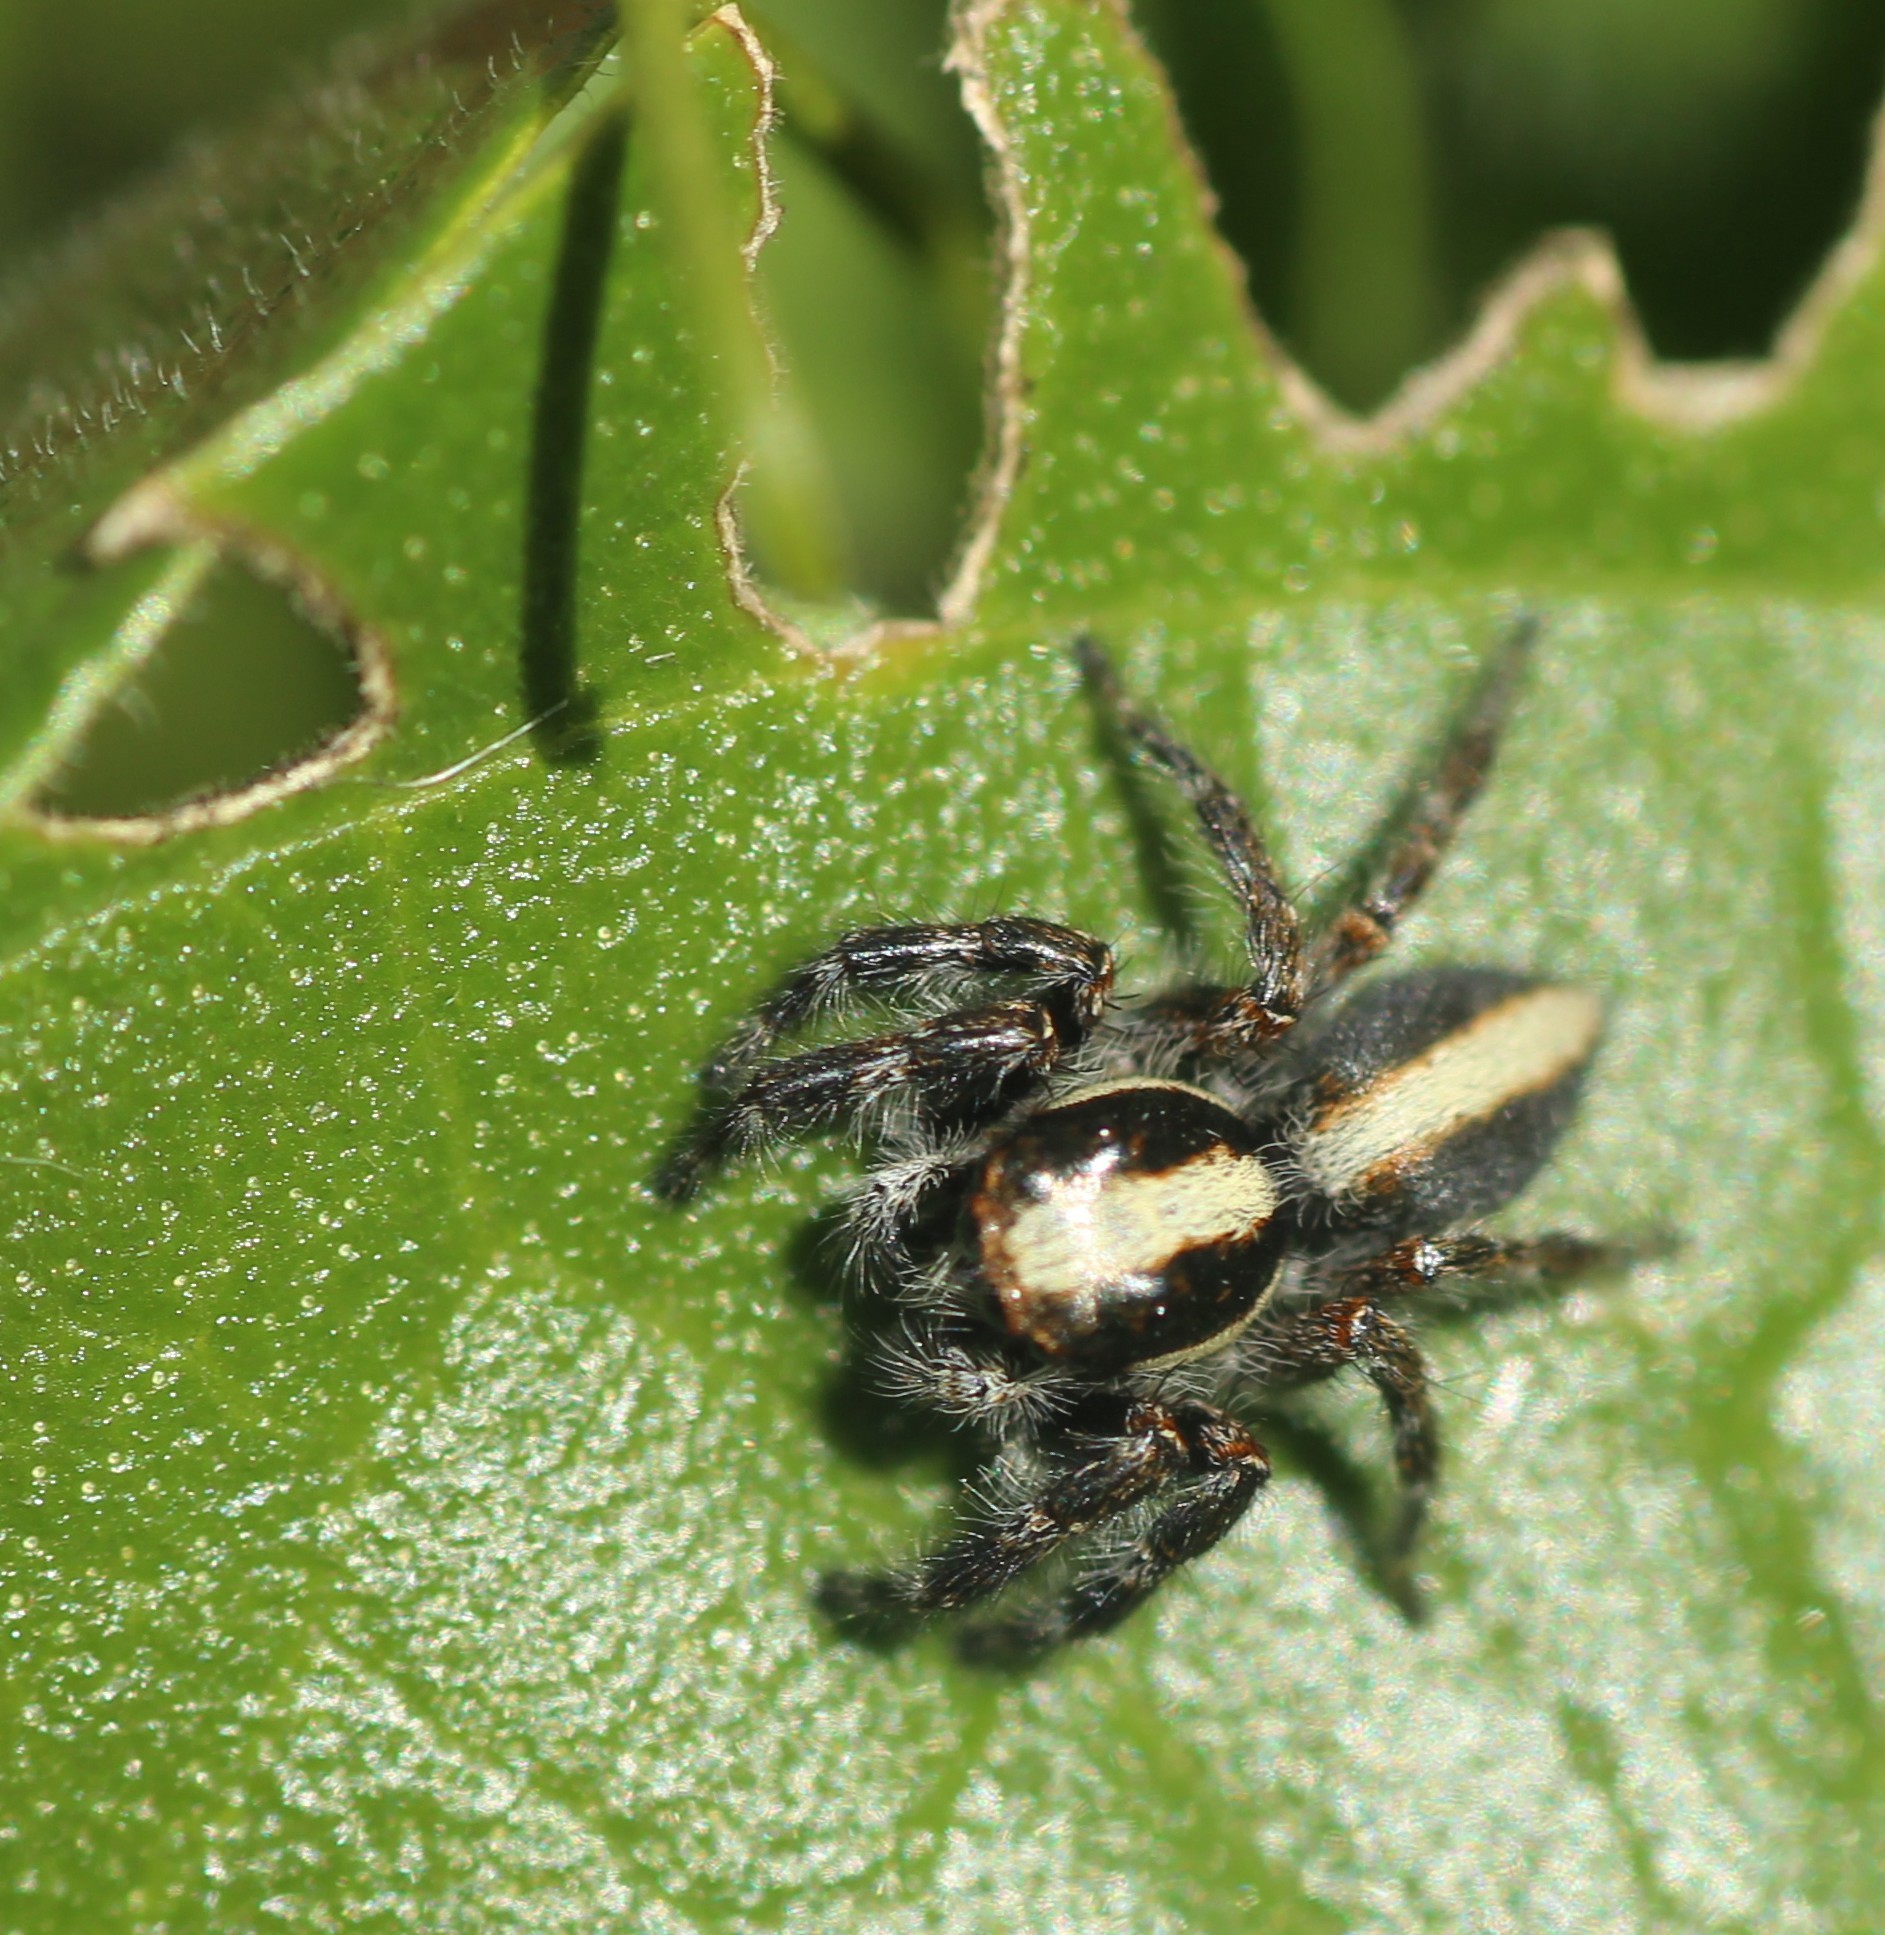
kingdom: Animalia
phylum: Arthropoda
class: Arachnida
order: Araneae
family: Salticidae
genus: Megafreya
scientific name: Megafreya sutrix
